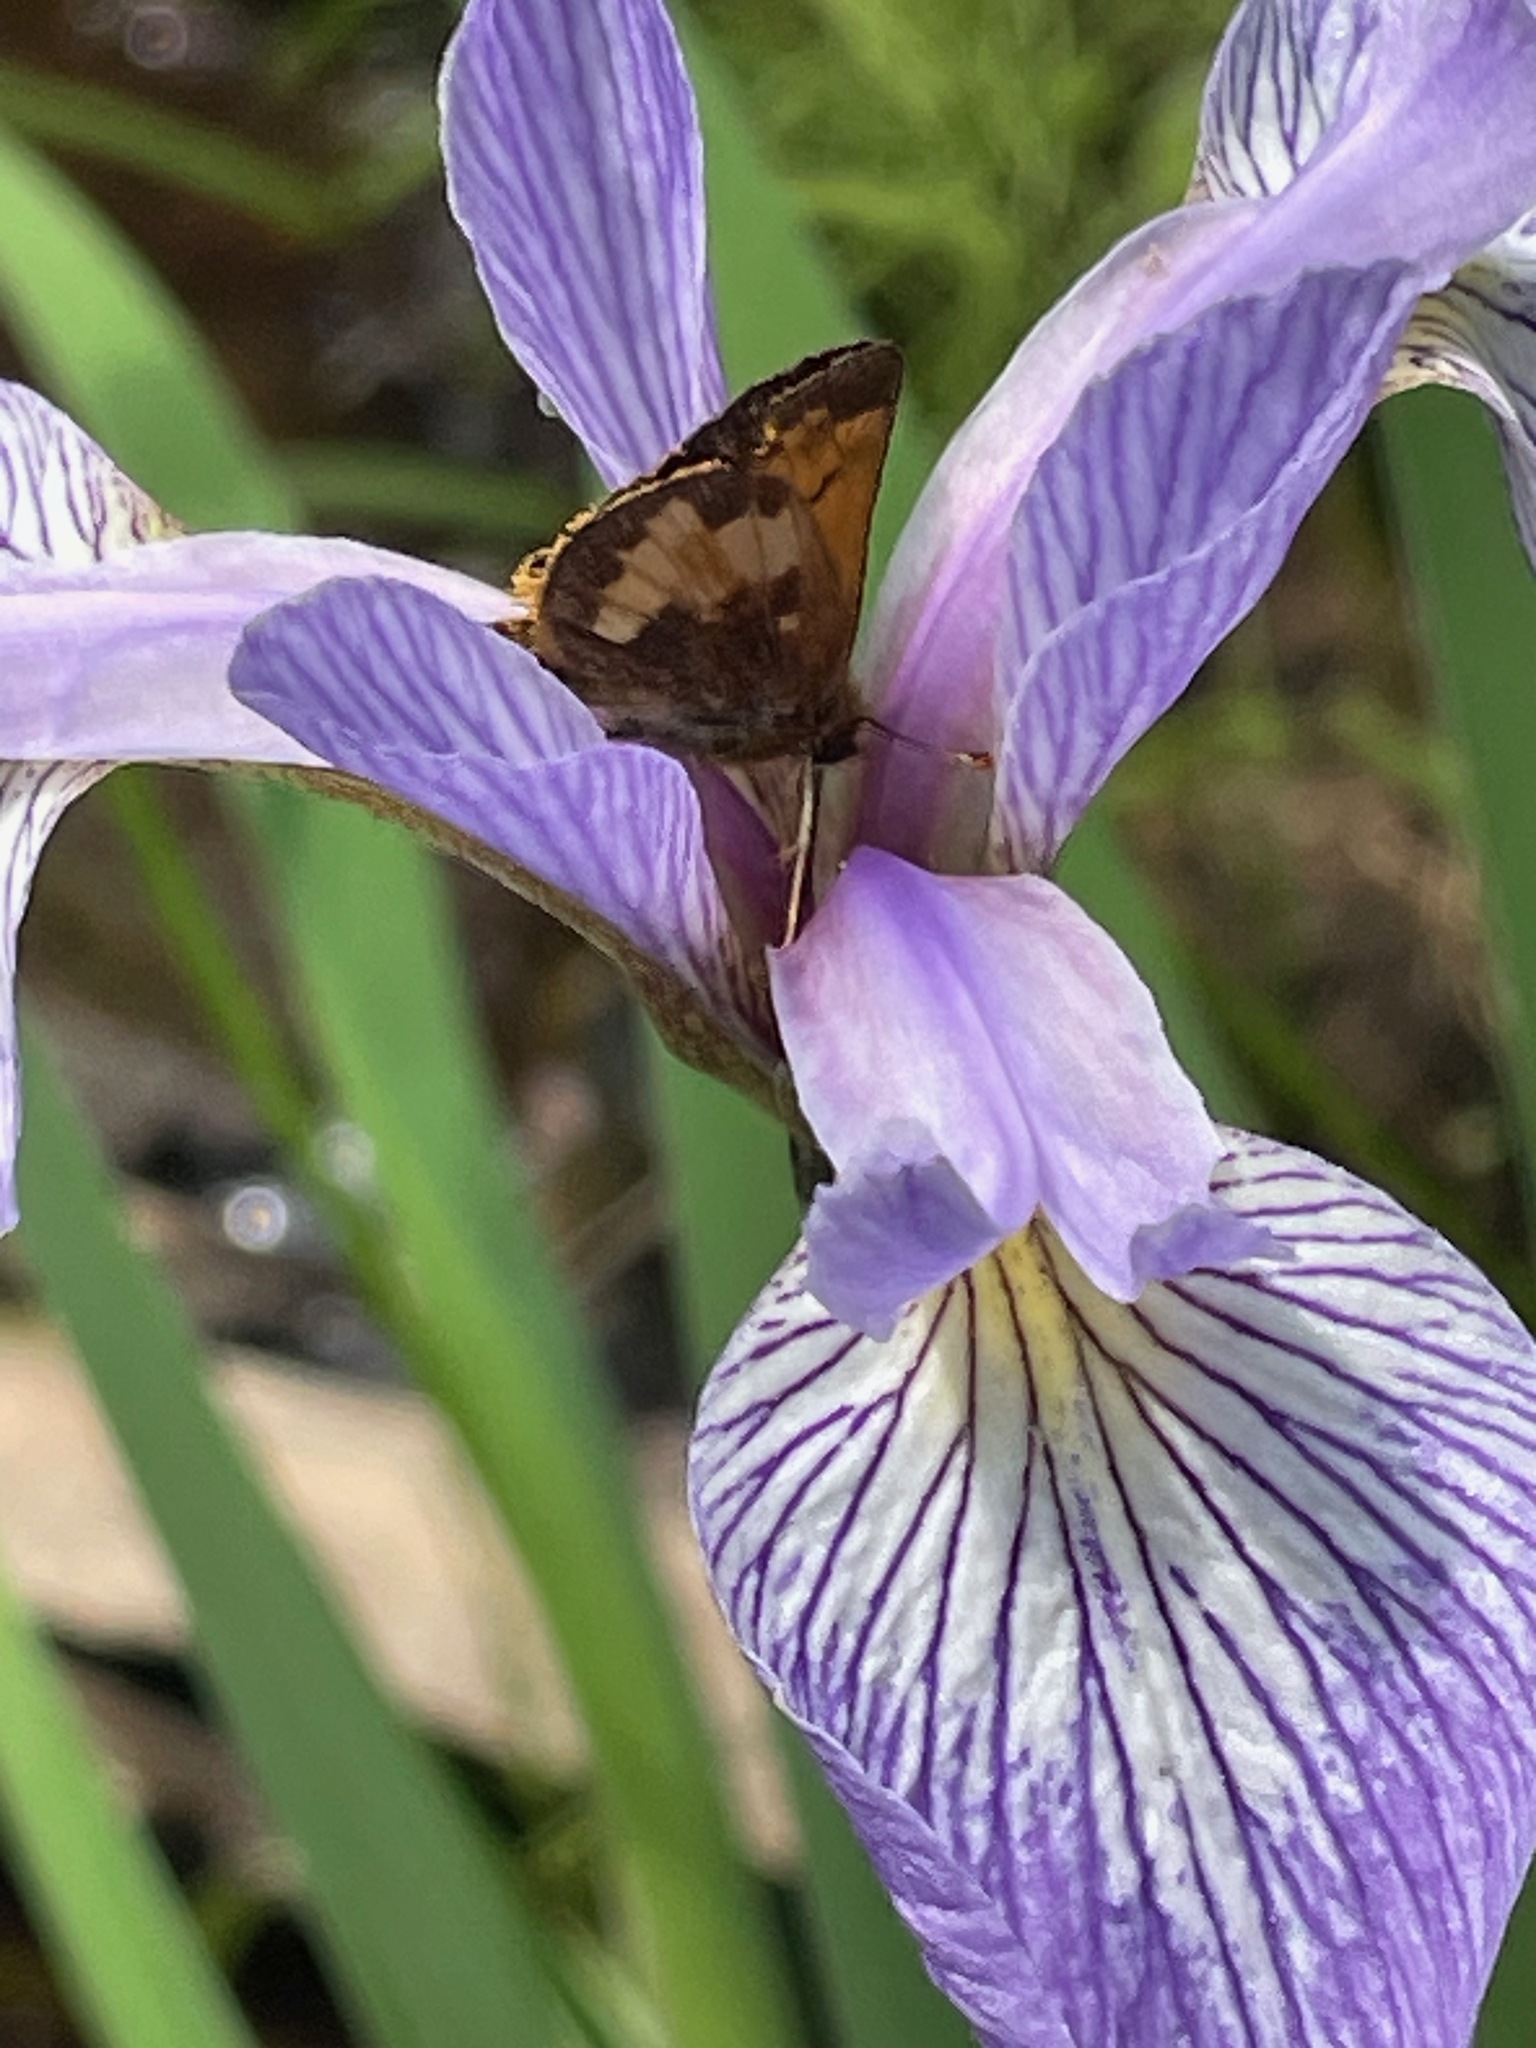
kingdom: Animalia
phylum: Arthropoda
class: Insecta
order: Lepidoptera
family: Hesperiidae
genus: Lon
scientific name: Lon hobomok
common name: Hobomok skipper
